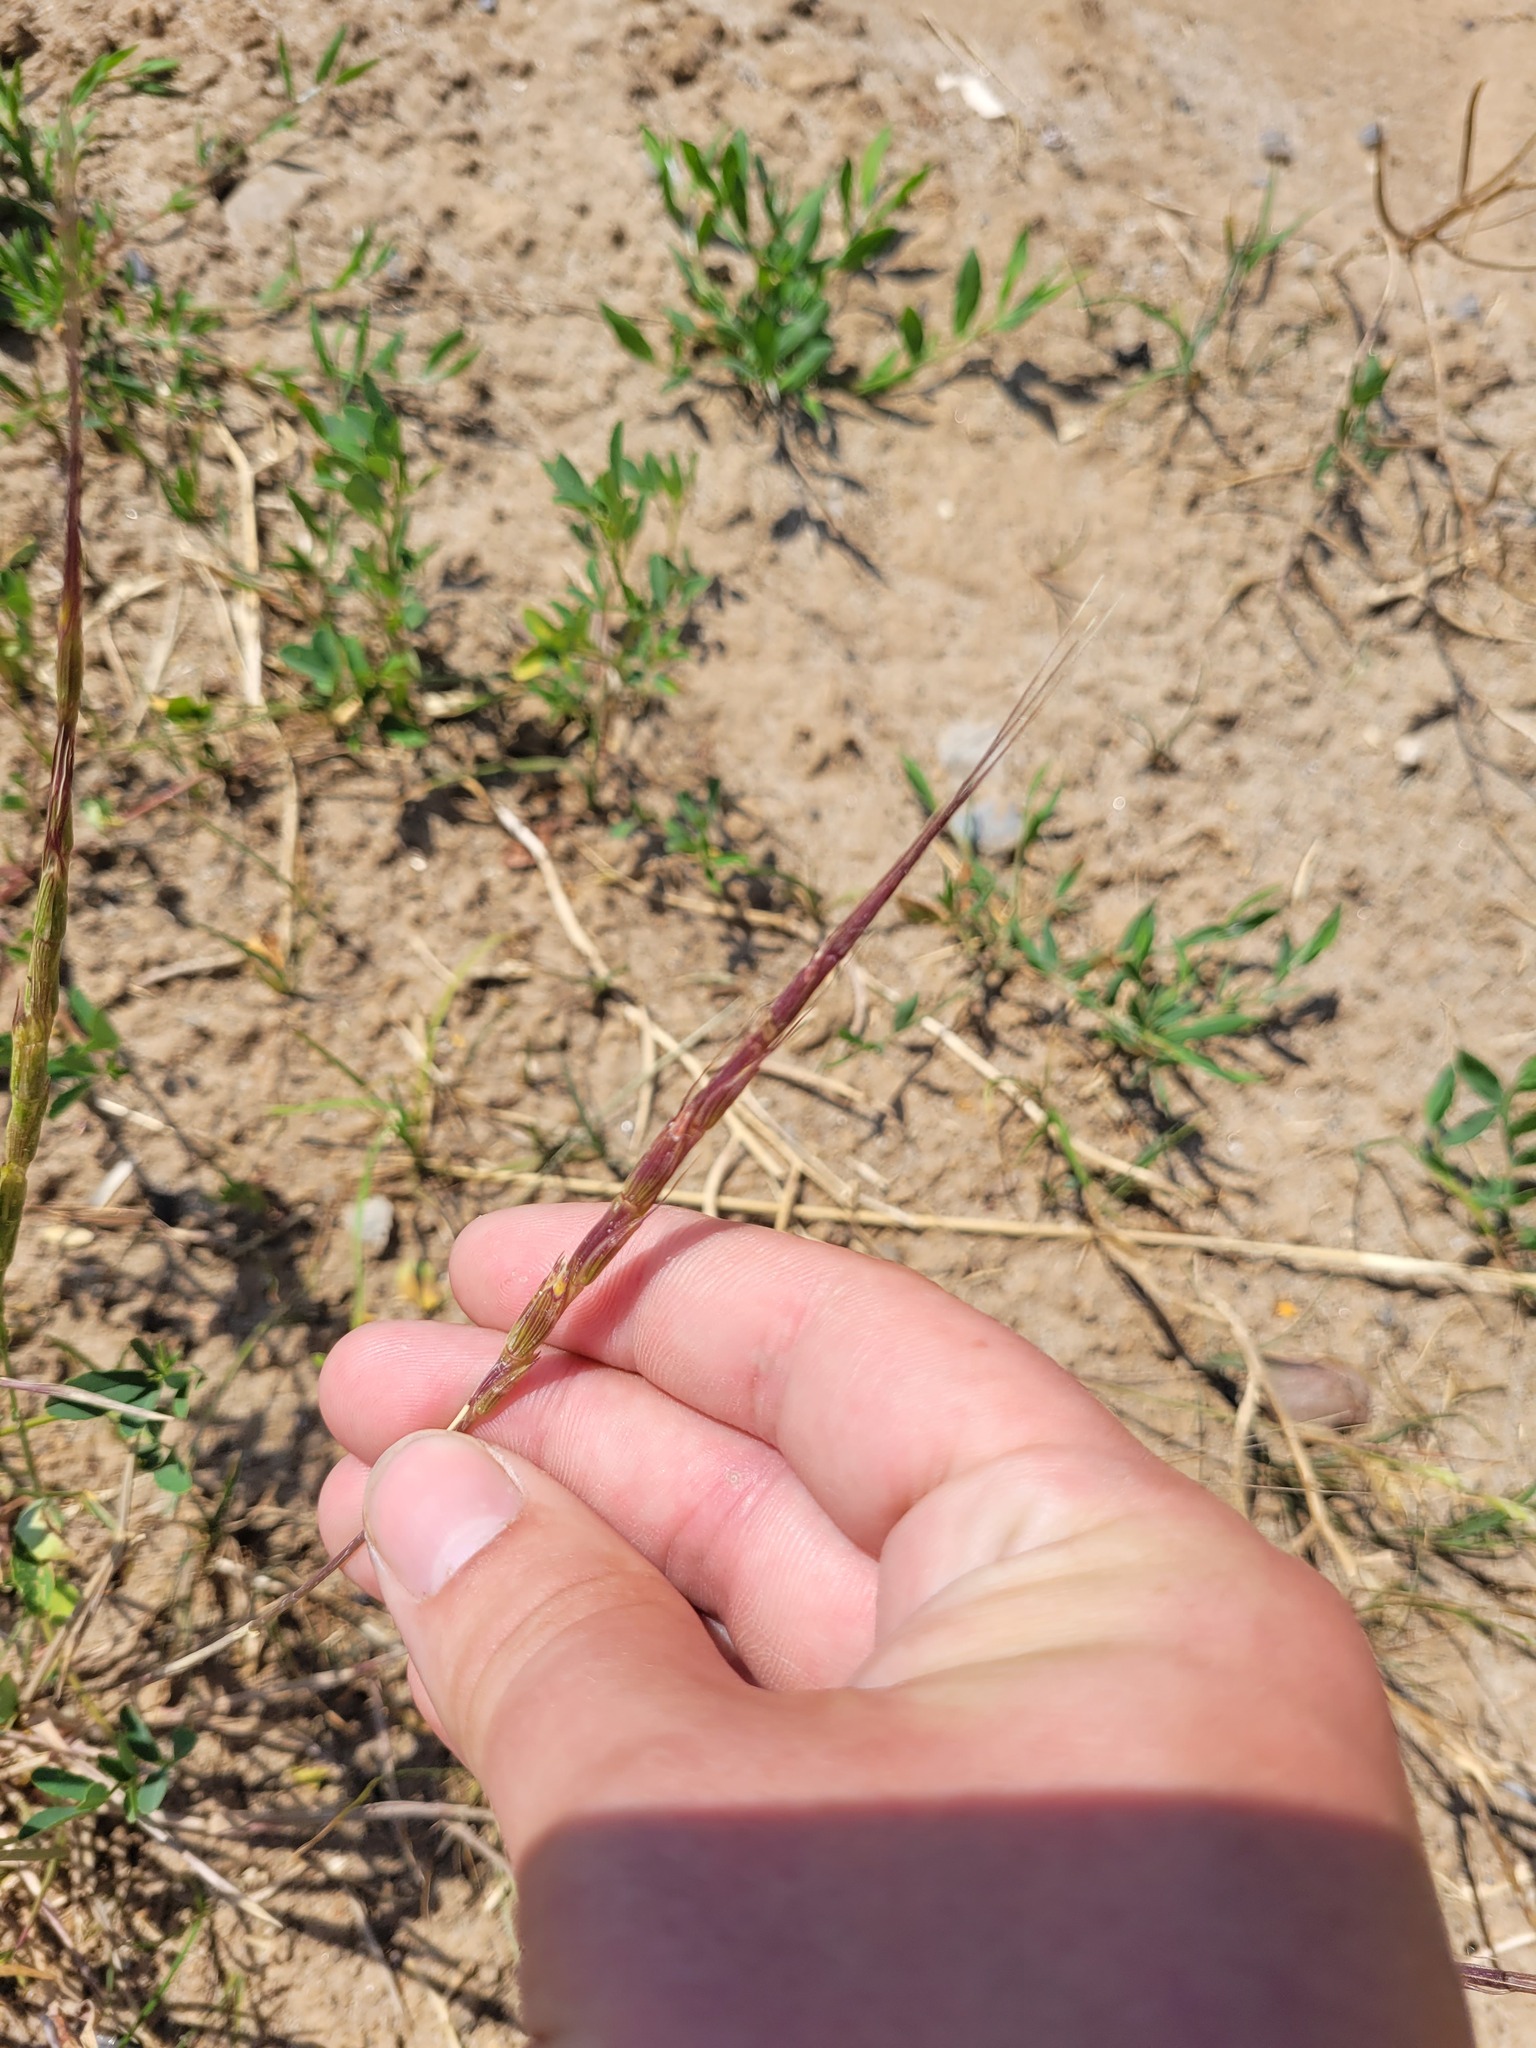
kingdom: Plantae
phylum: Tracheophyta
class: Liliopsida
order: Poales
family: Poaceae
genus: Aegilops
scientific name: Aegilops cylindrica
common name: Jointed goatgrass
